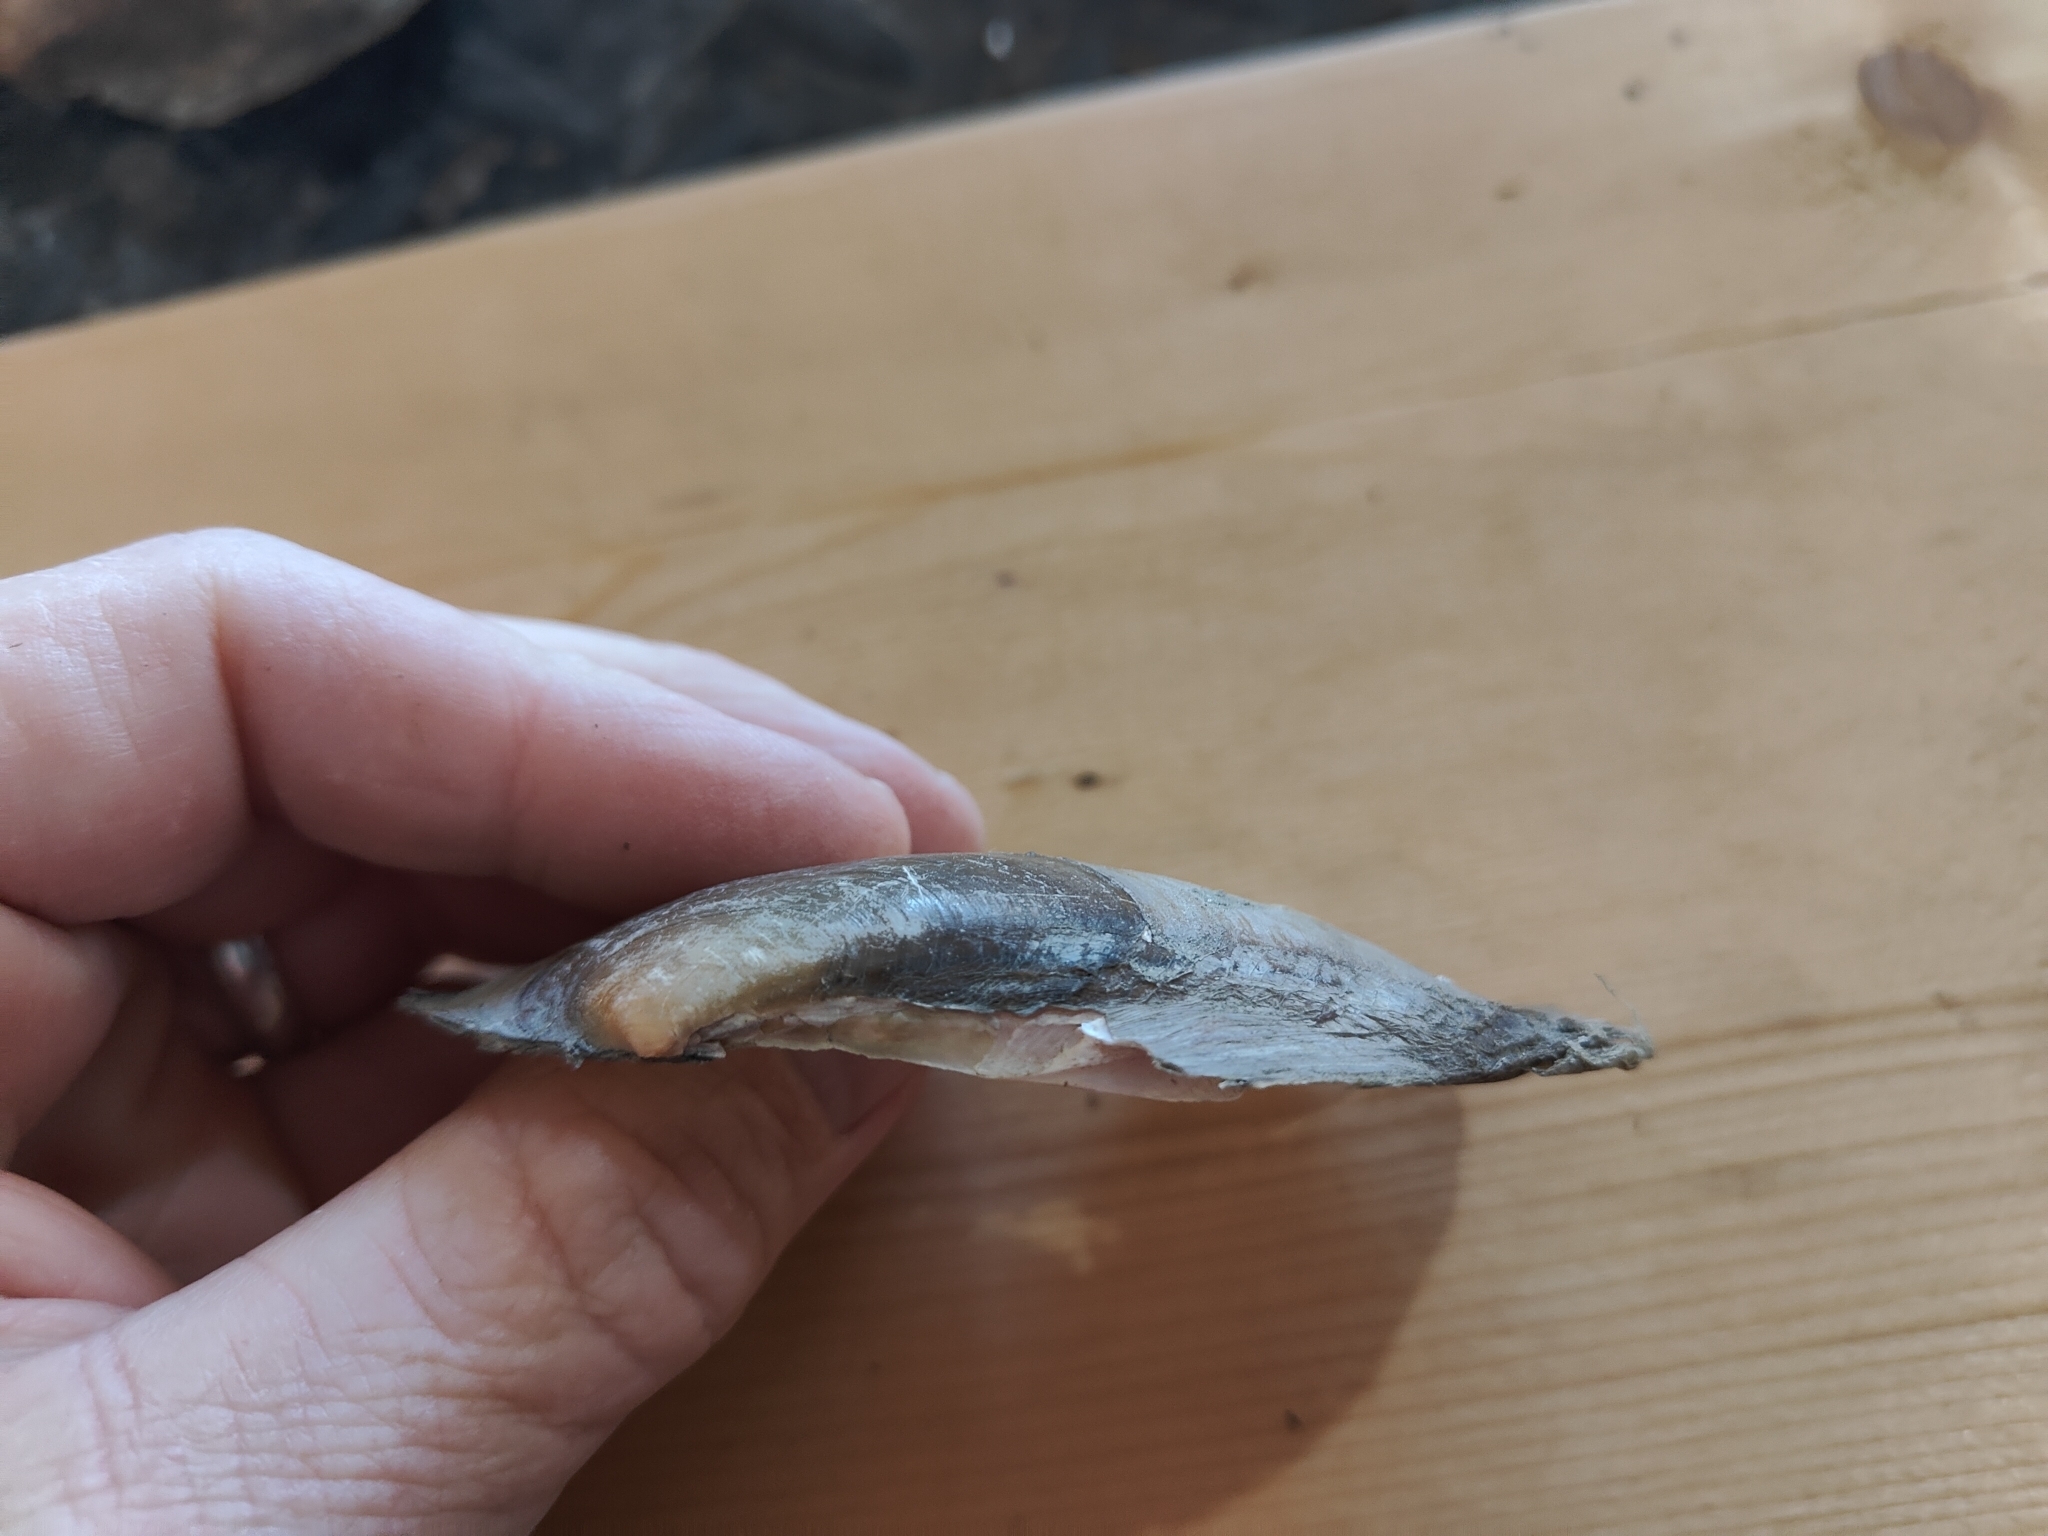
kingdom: Animalia
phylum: Mollusca
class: Bivalvia
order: Unionida
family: Unionidae
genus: Potamilus
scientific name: Potamilus fragilis
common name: Fragile papershell
